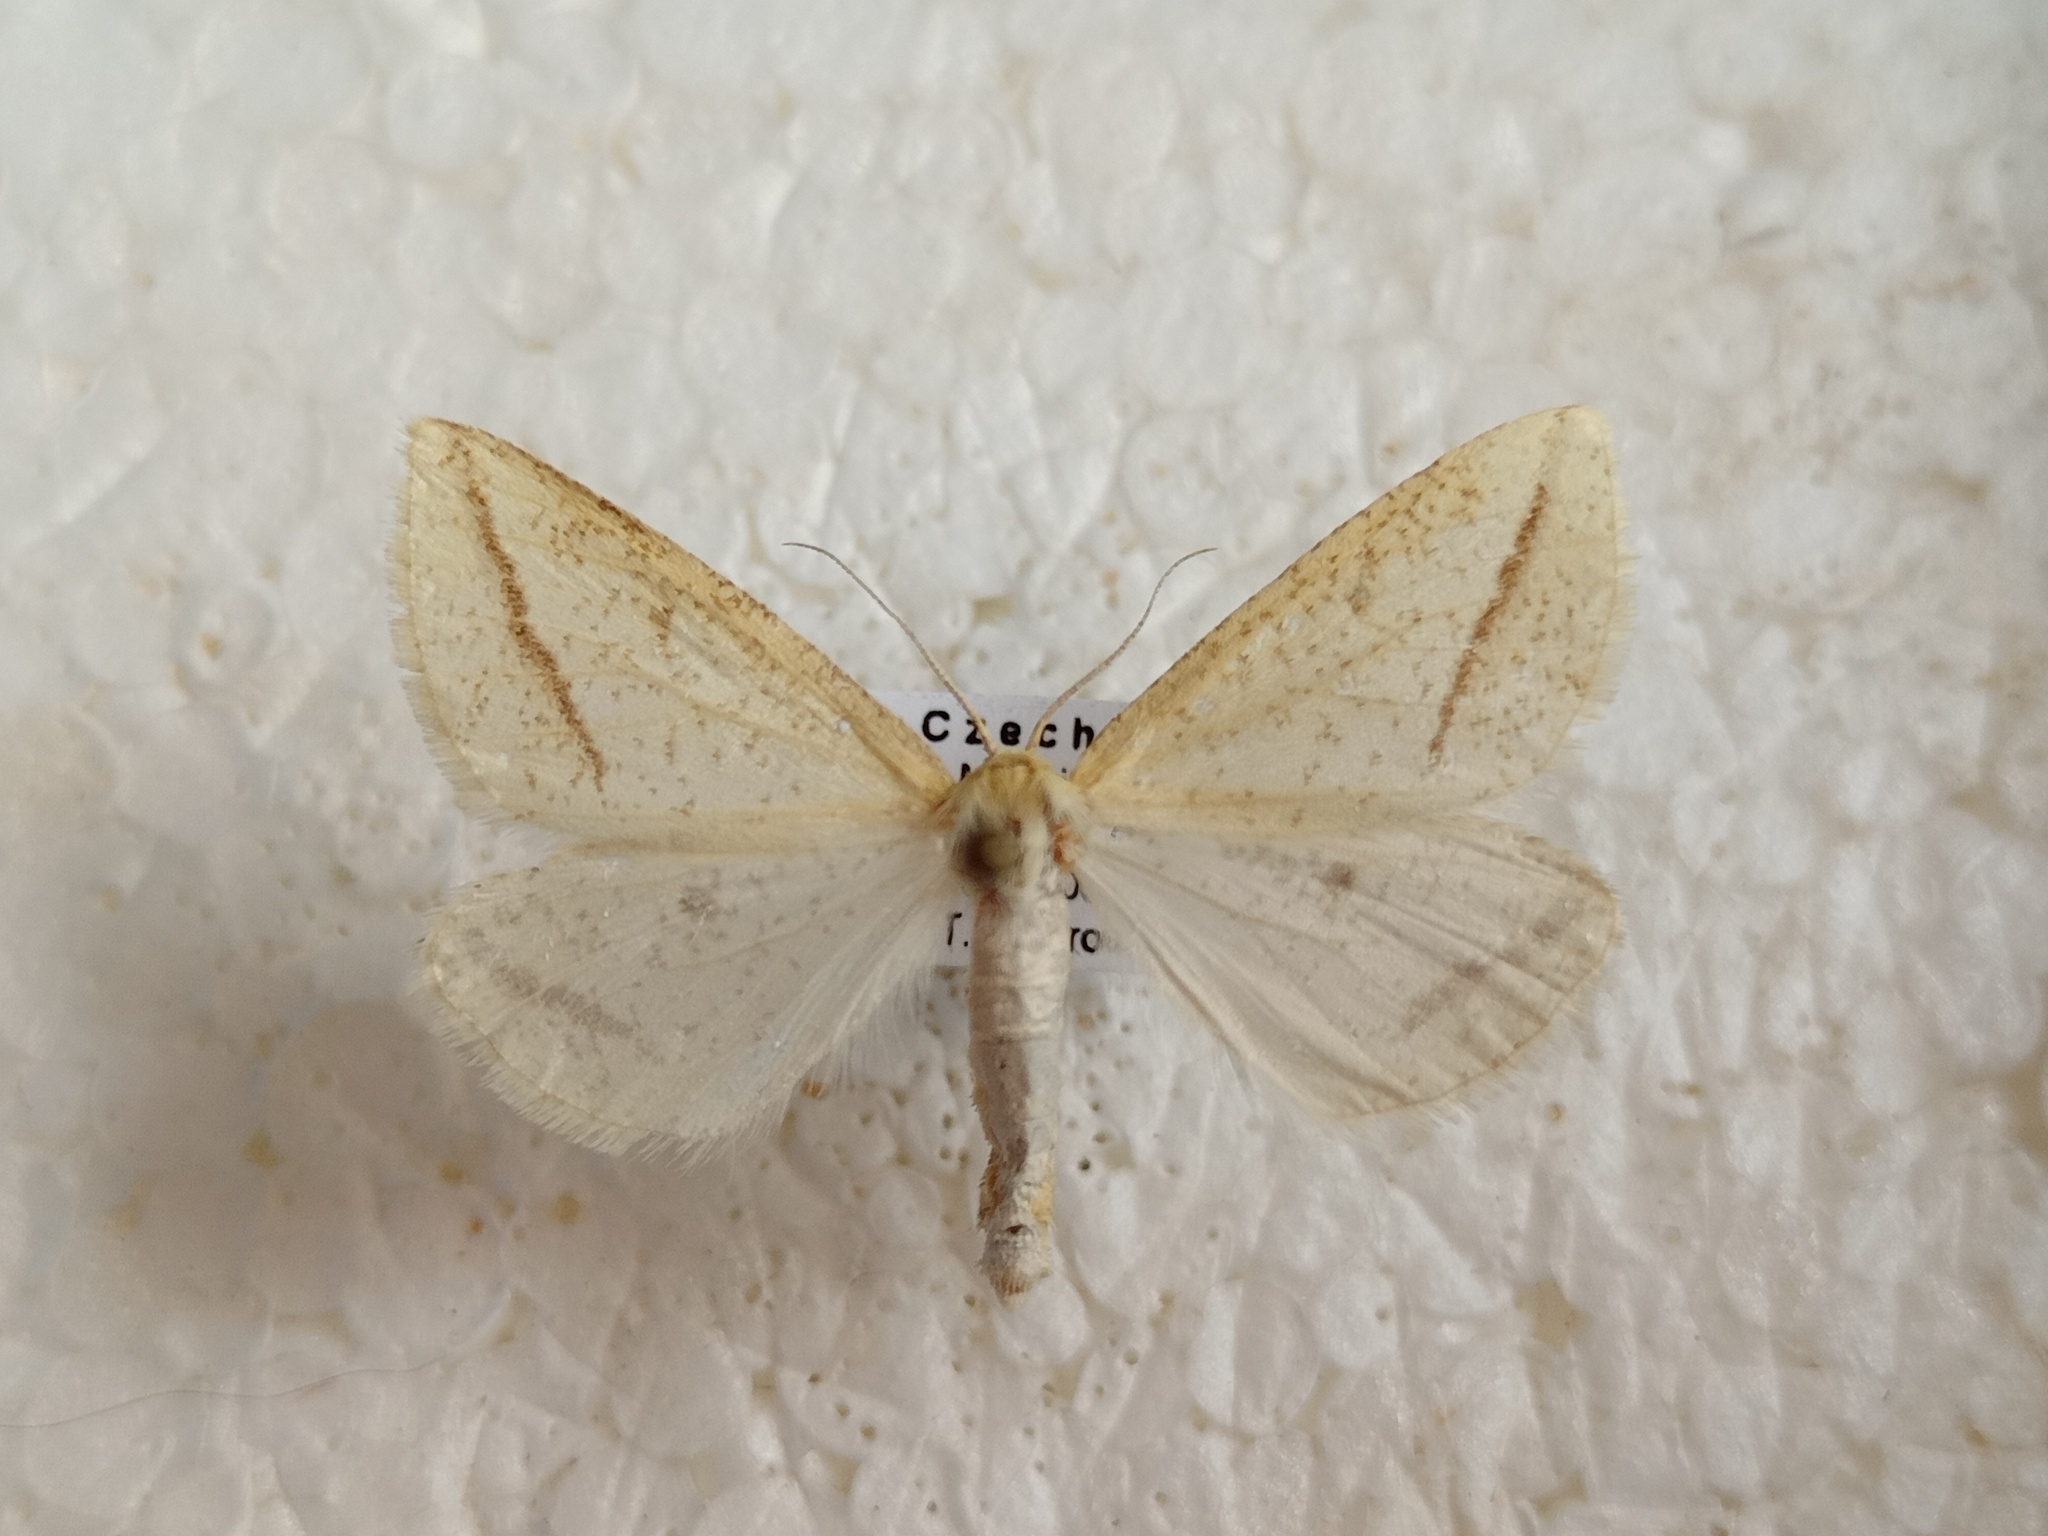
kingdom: Animalia
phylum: Arthropoda
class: Insecta
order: Lepidoptera
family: Geometridae
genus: Aspitates
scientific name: Aspitates gilvaria
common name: Straw belle
